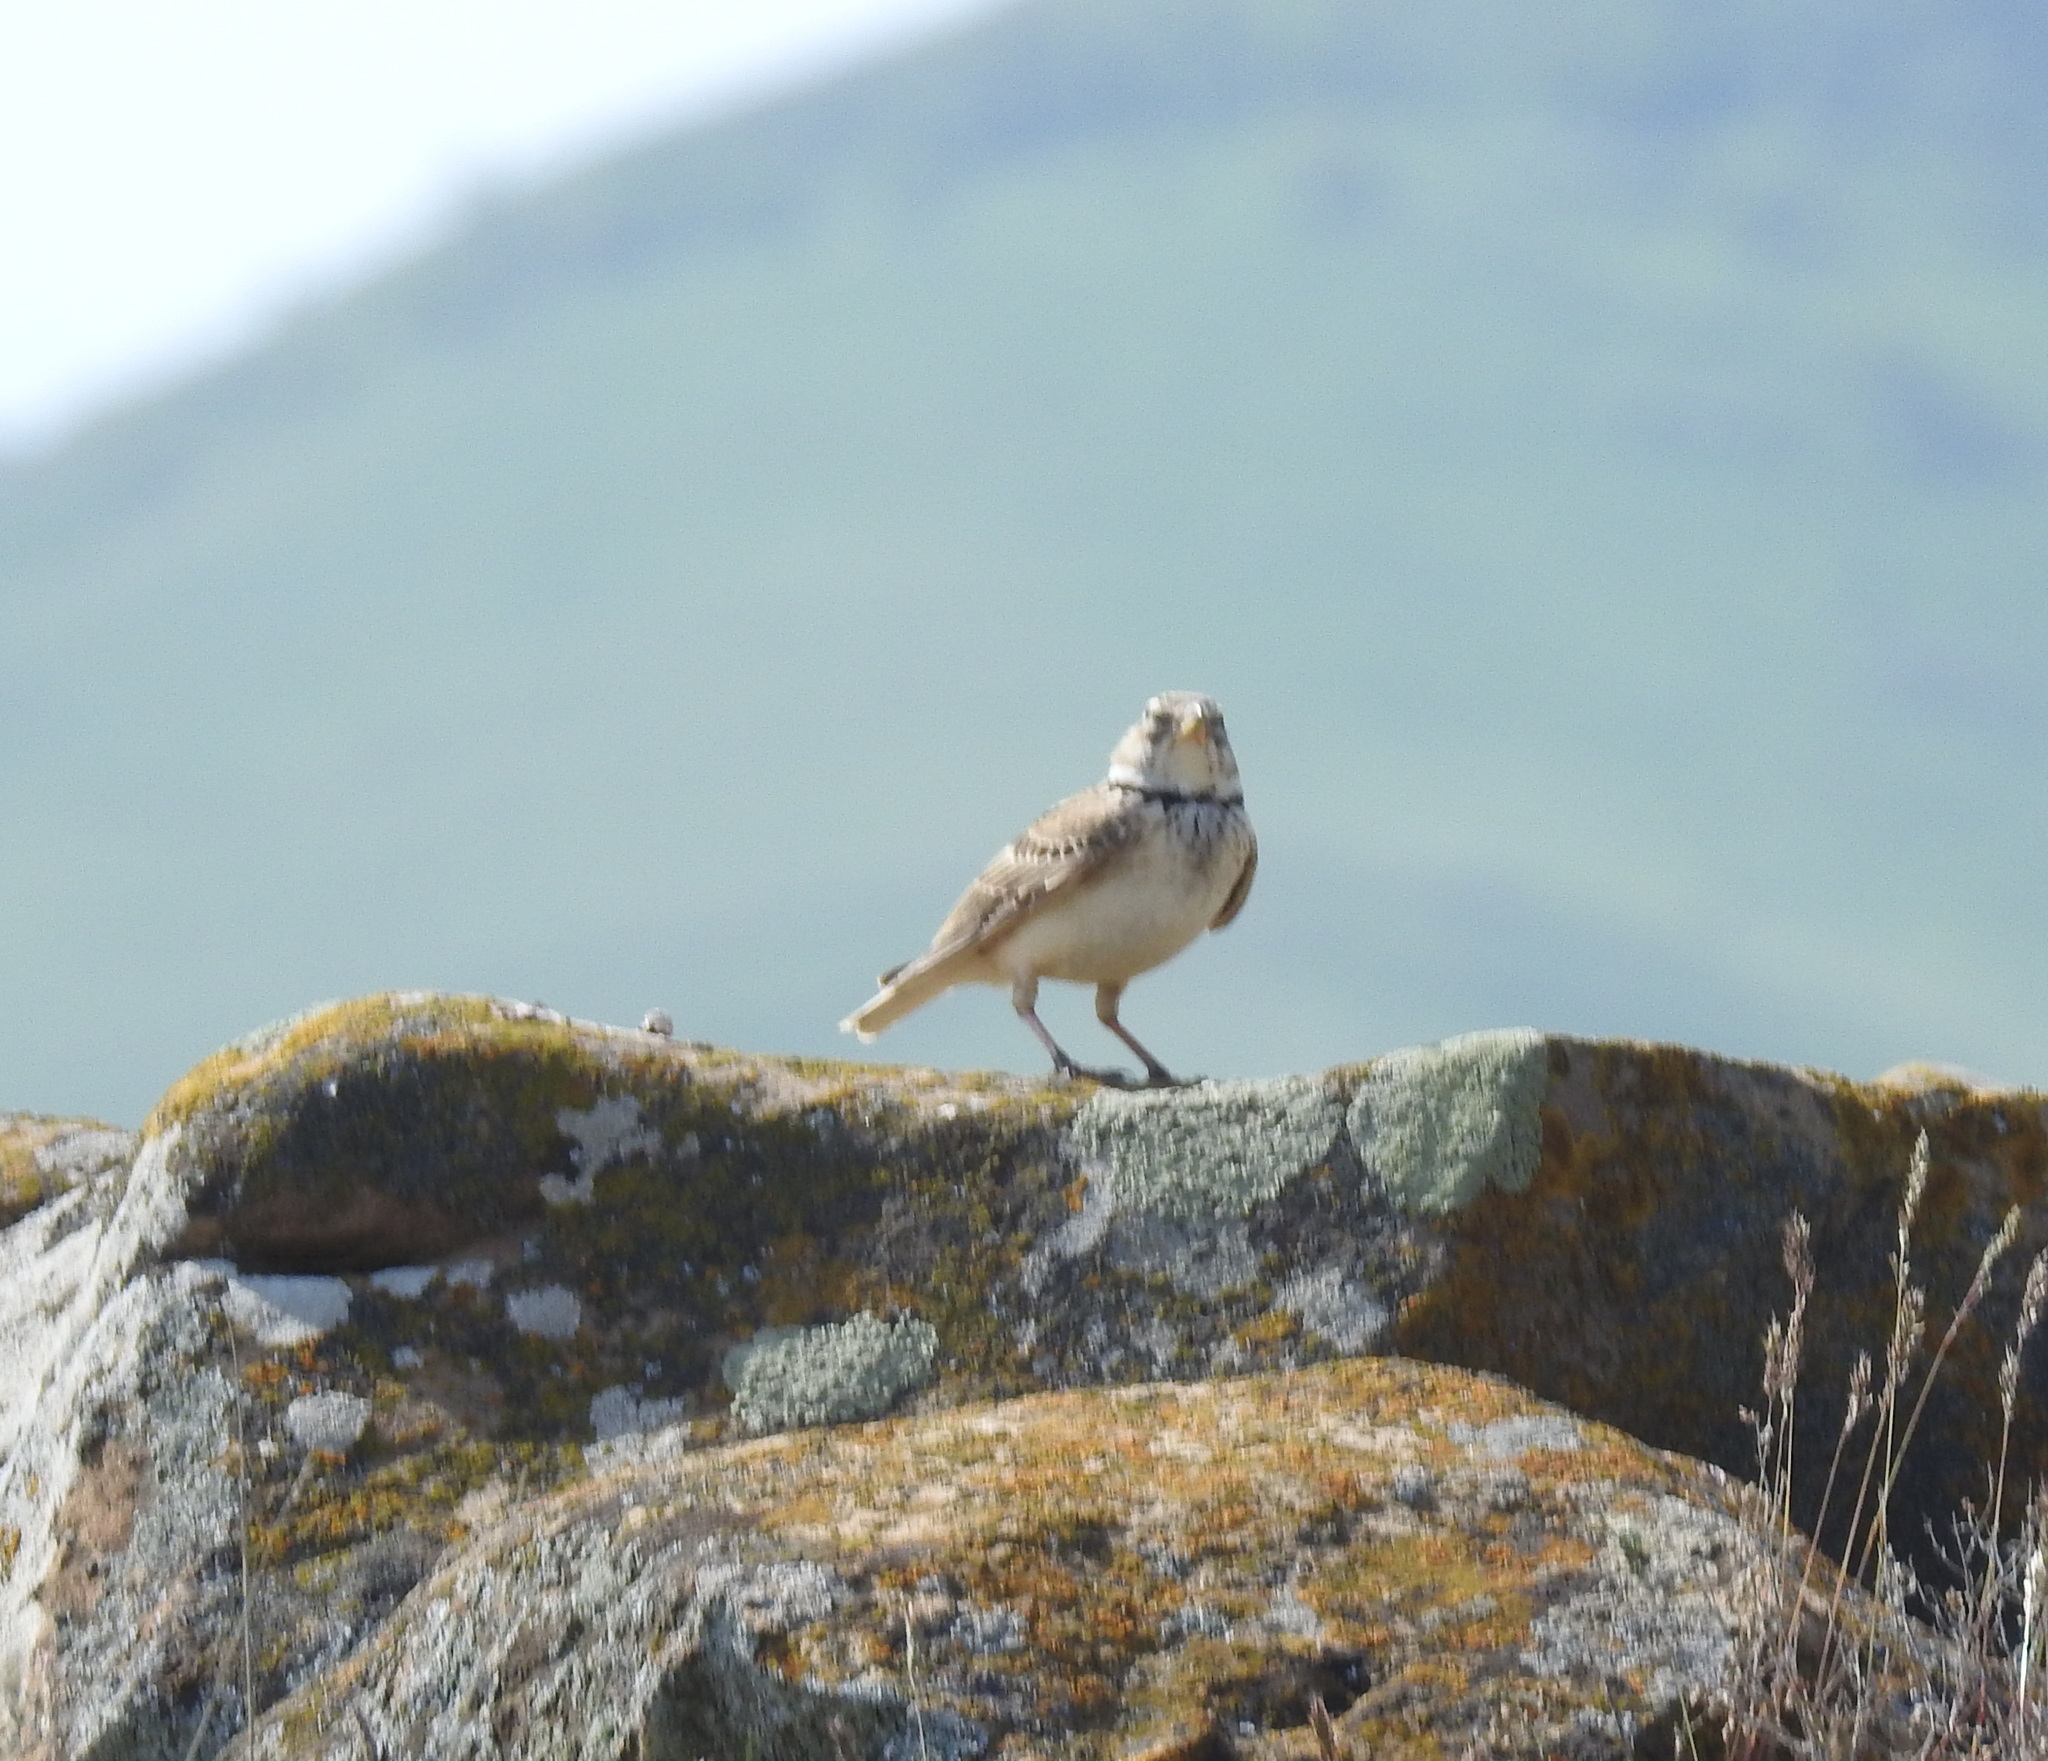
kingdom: Animalia
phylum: Chordata
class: Aves
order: Passeriformes
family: Alaudidae
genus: Melanocorypha
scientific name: Melanocorypha calandra
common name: Calandra lark
